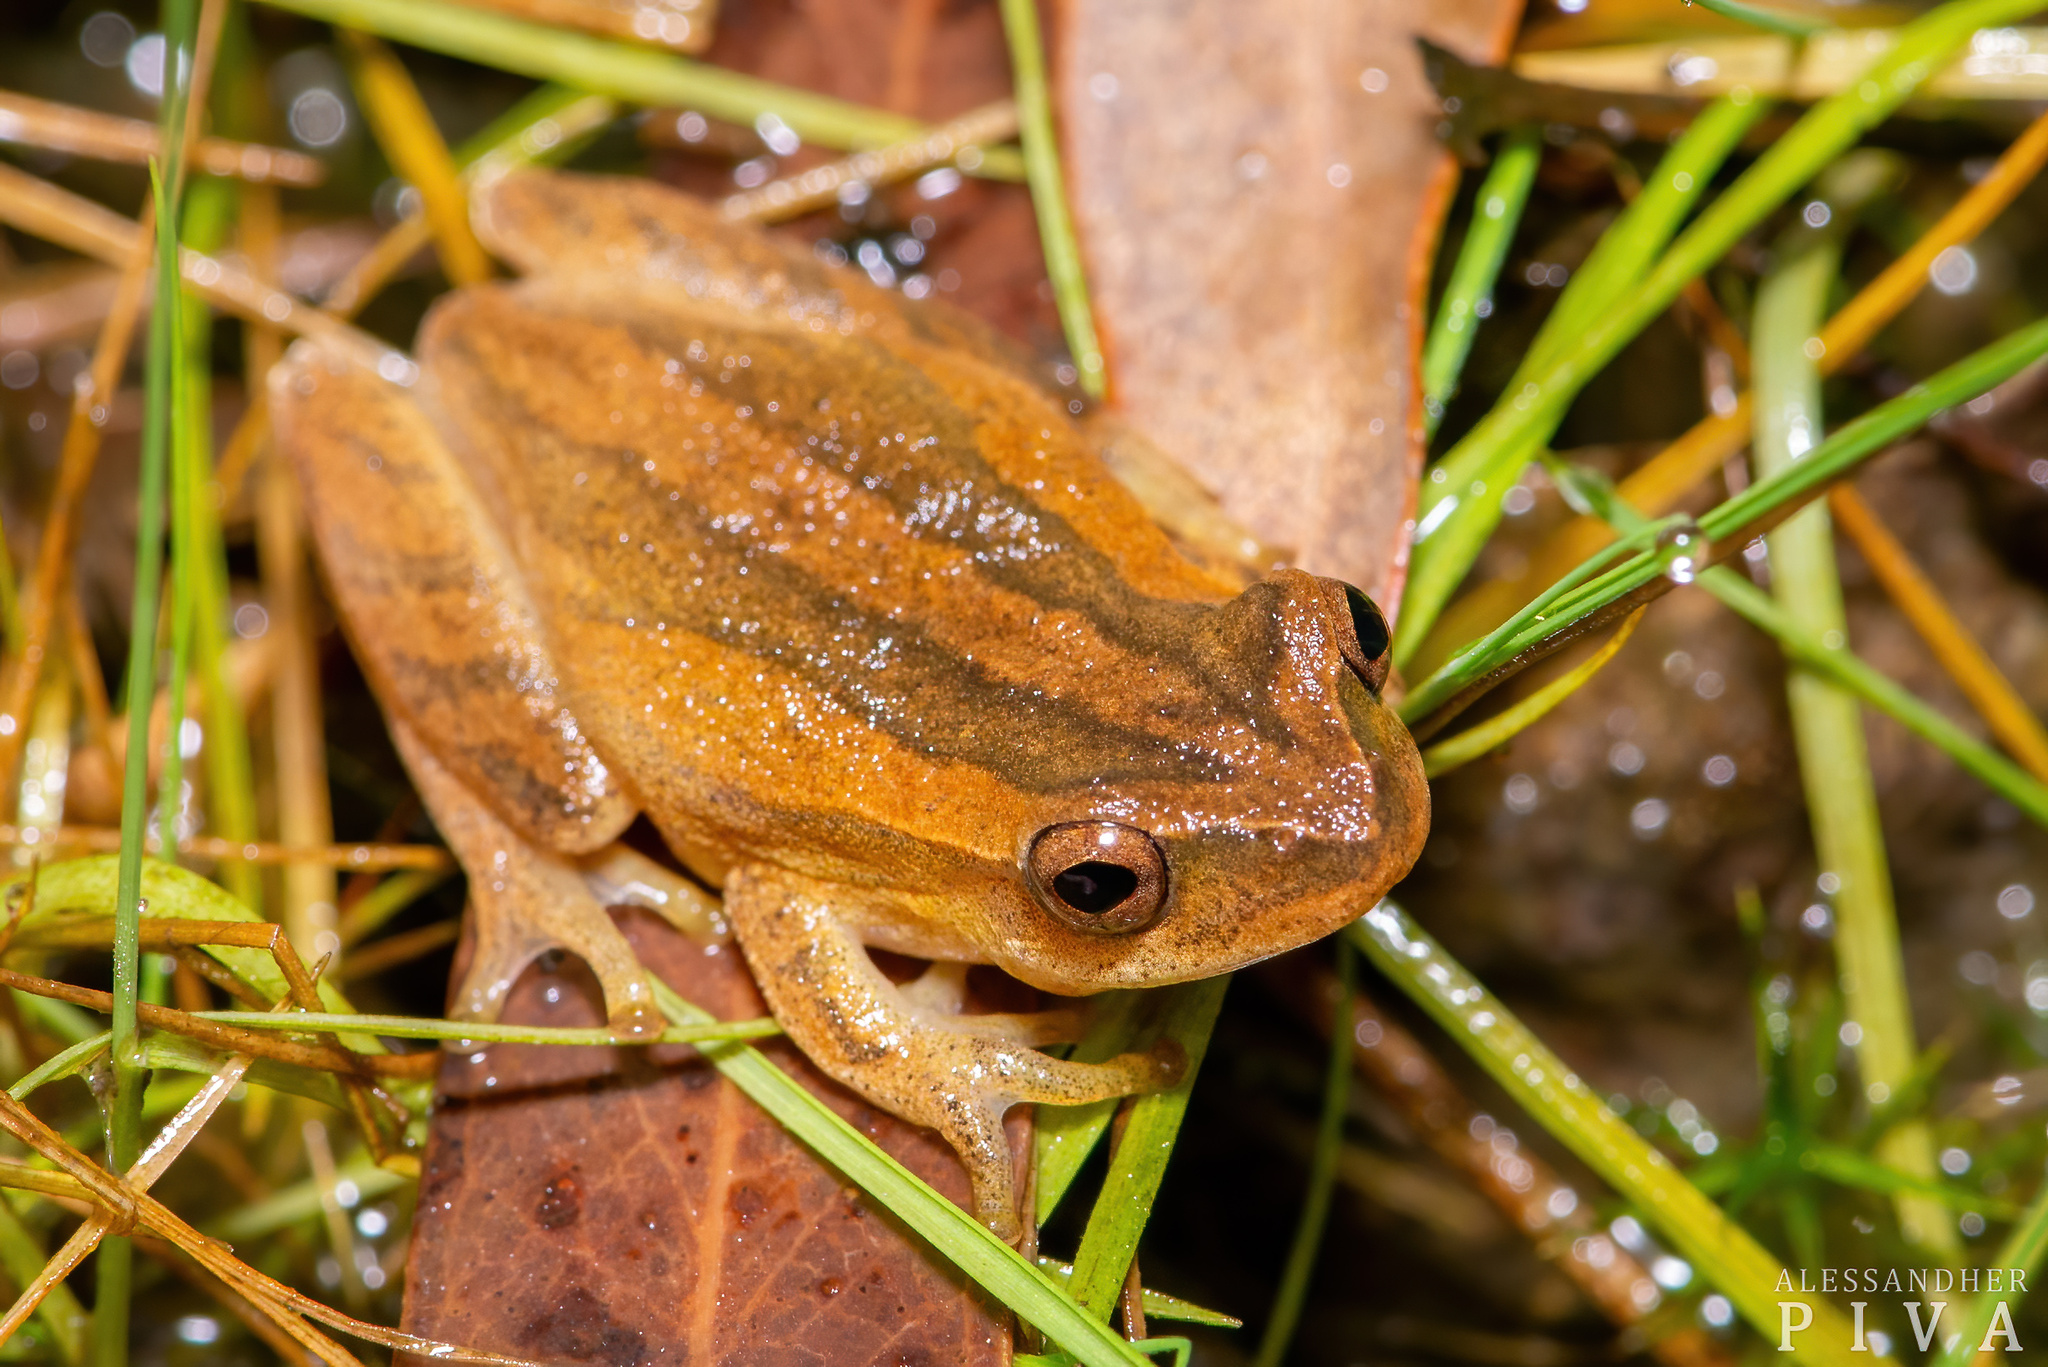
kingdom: Animalia
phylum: Chordata
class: Amphibia
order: Anura
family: Hylidae
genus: Dendropsophus
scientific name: Dendropsophus minutus
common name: Lesser treefrog
